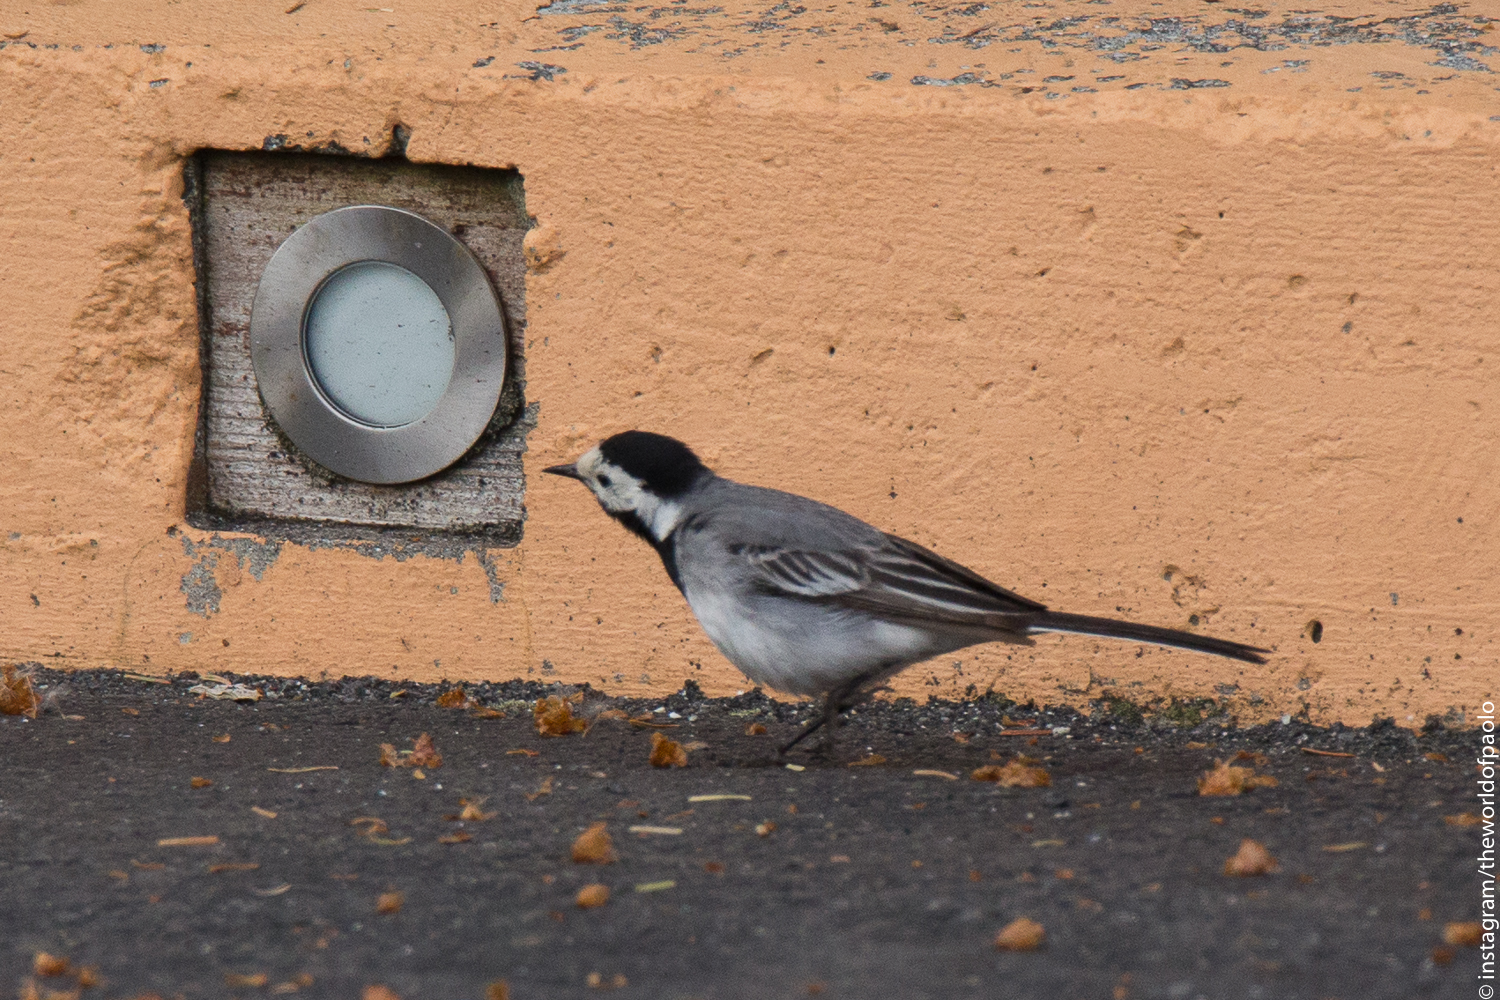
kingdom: Animalia
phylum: Chordata
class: Aves
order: Passeriformes
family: Motacillidae
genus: Motacilla
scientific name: Motacilla alba
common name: White wagtail
